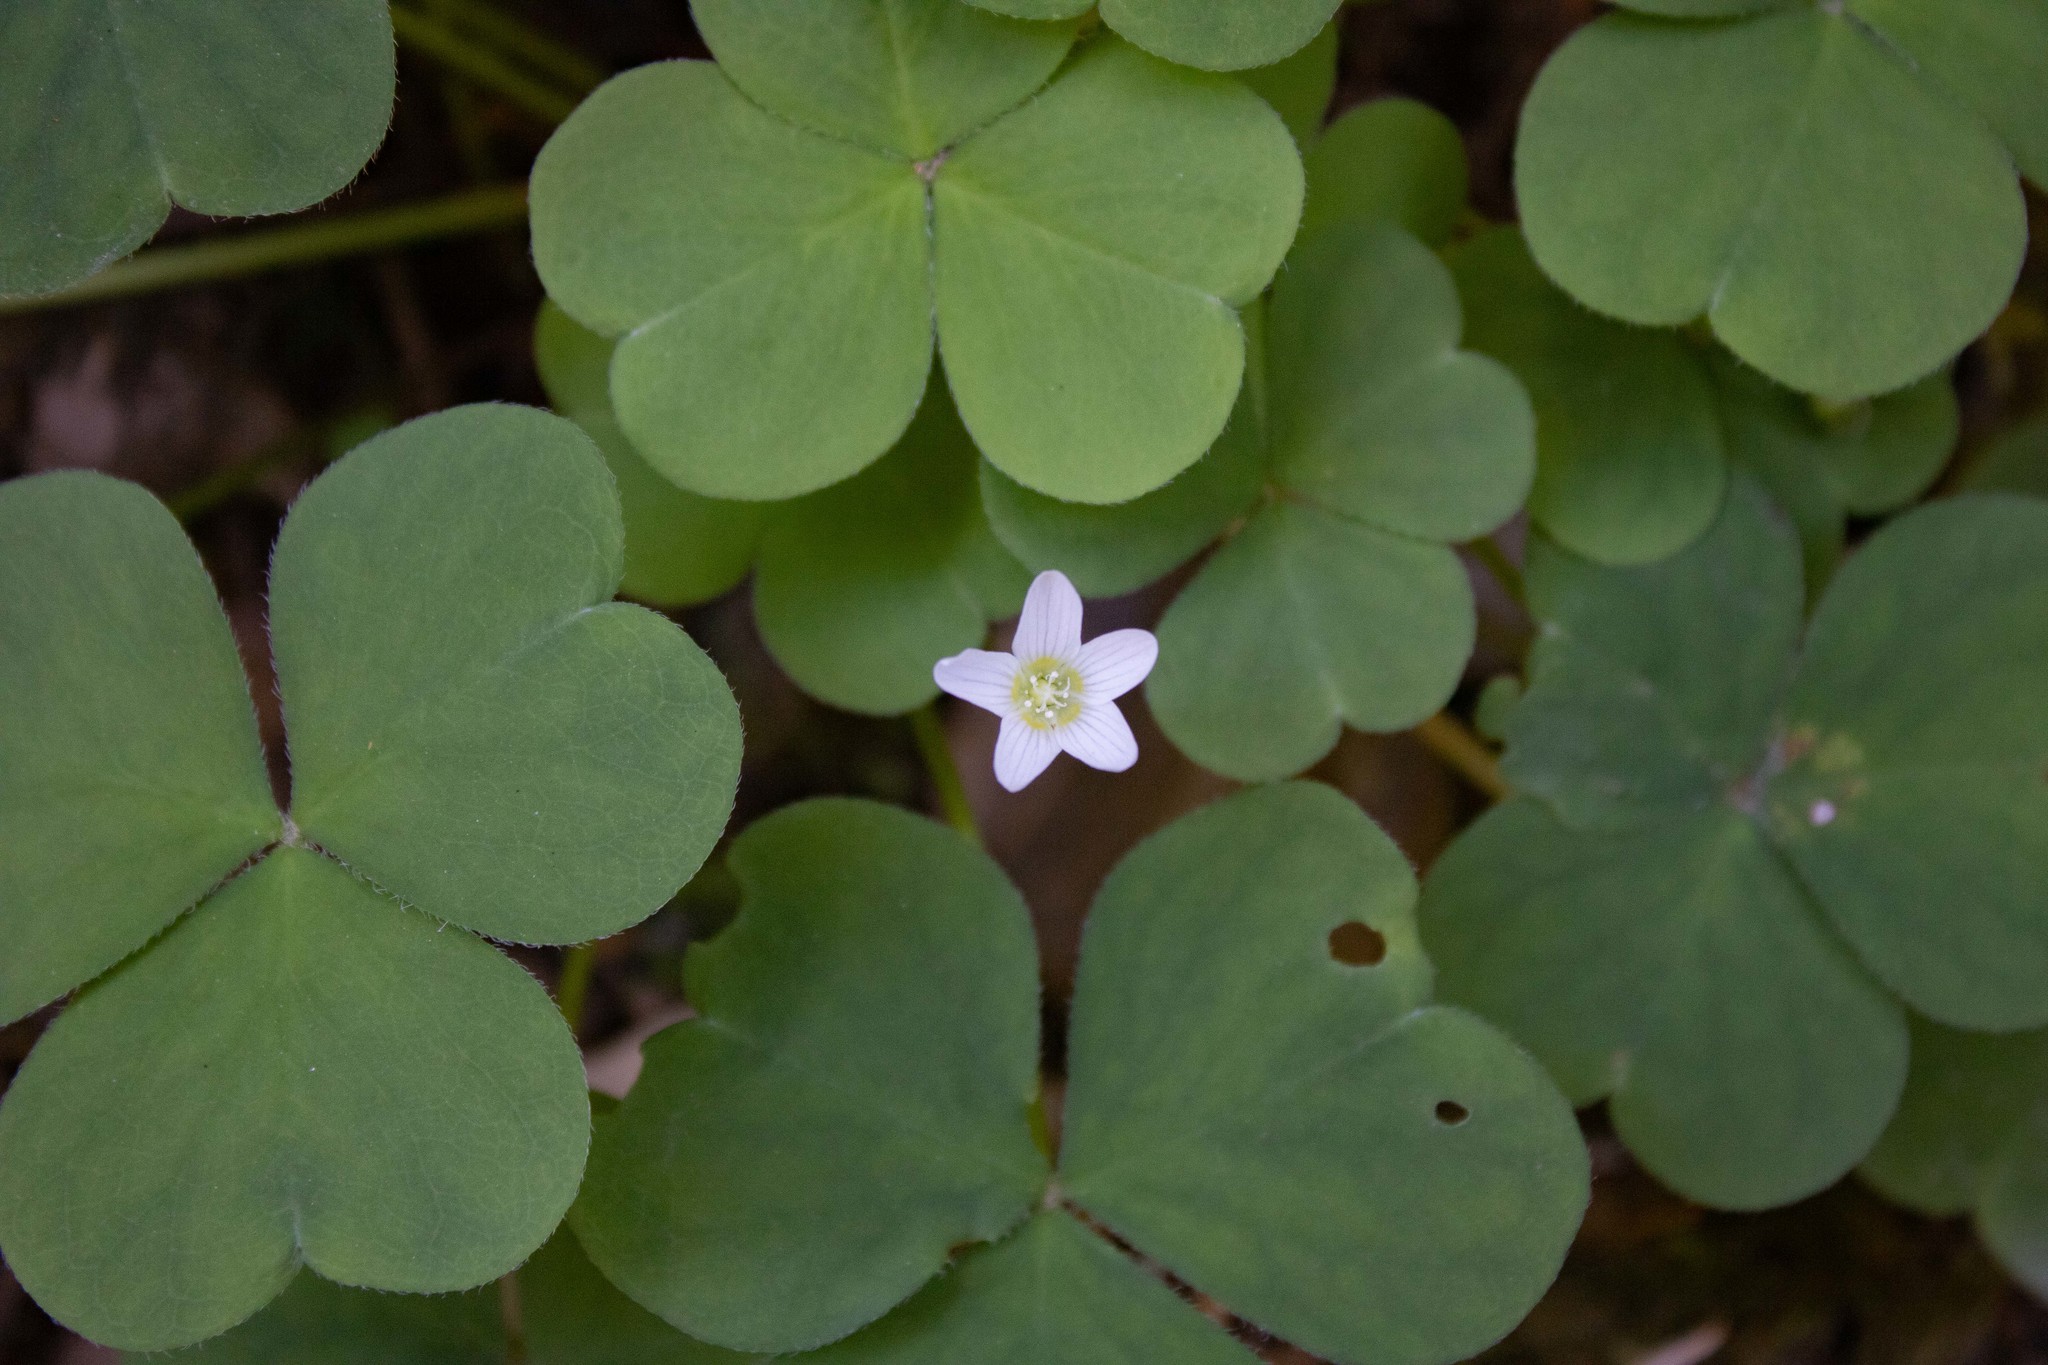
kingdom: Plantae
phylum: Tracheophyta
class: Magnoliopsida
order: Oxalidales
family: Oxalidaceae
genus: Oxalis
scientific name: Oxalis oregana
